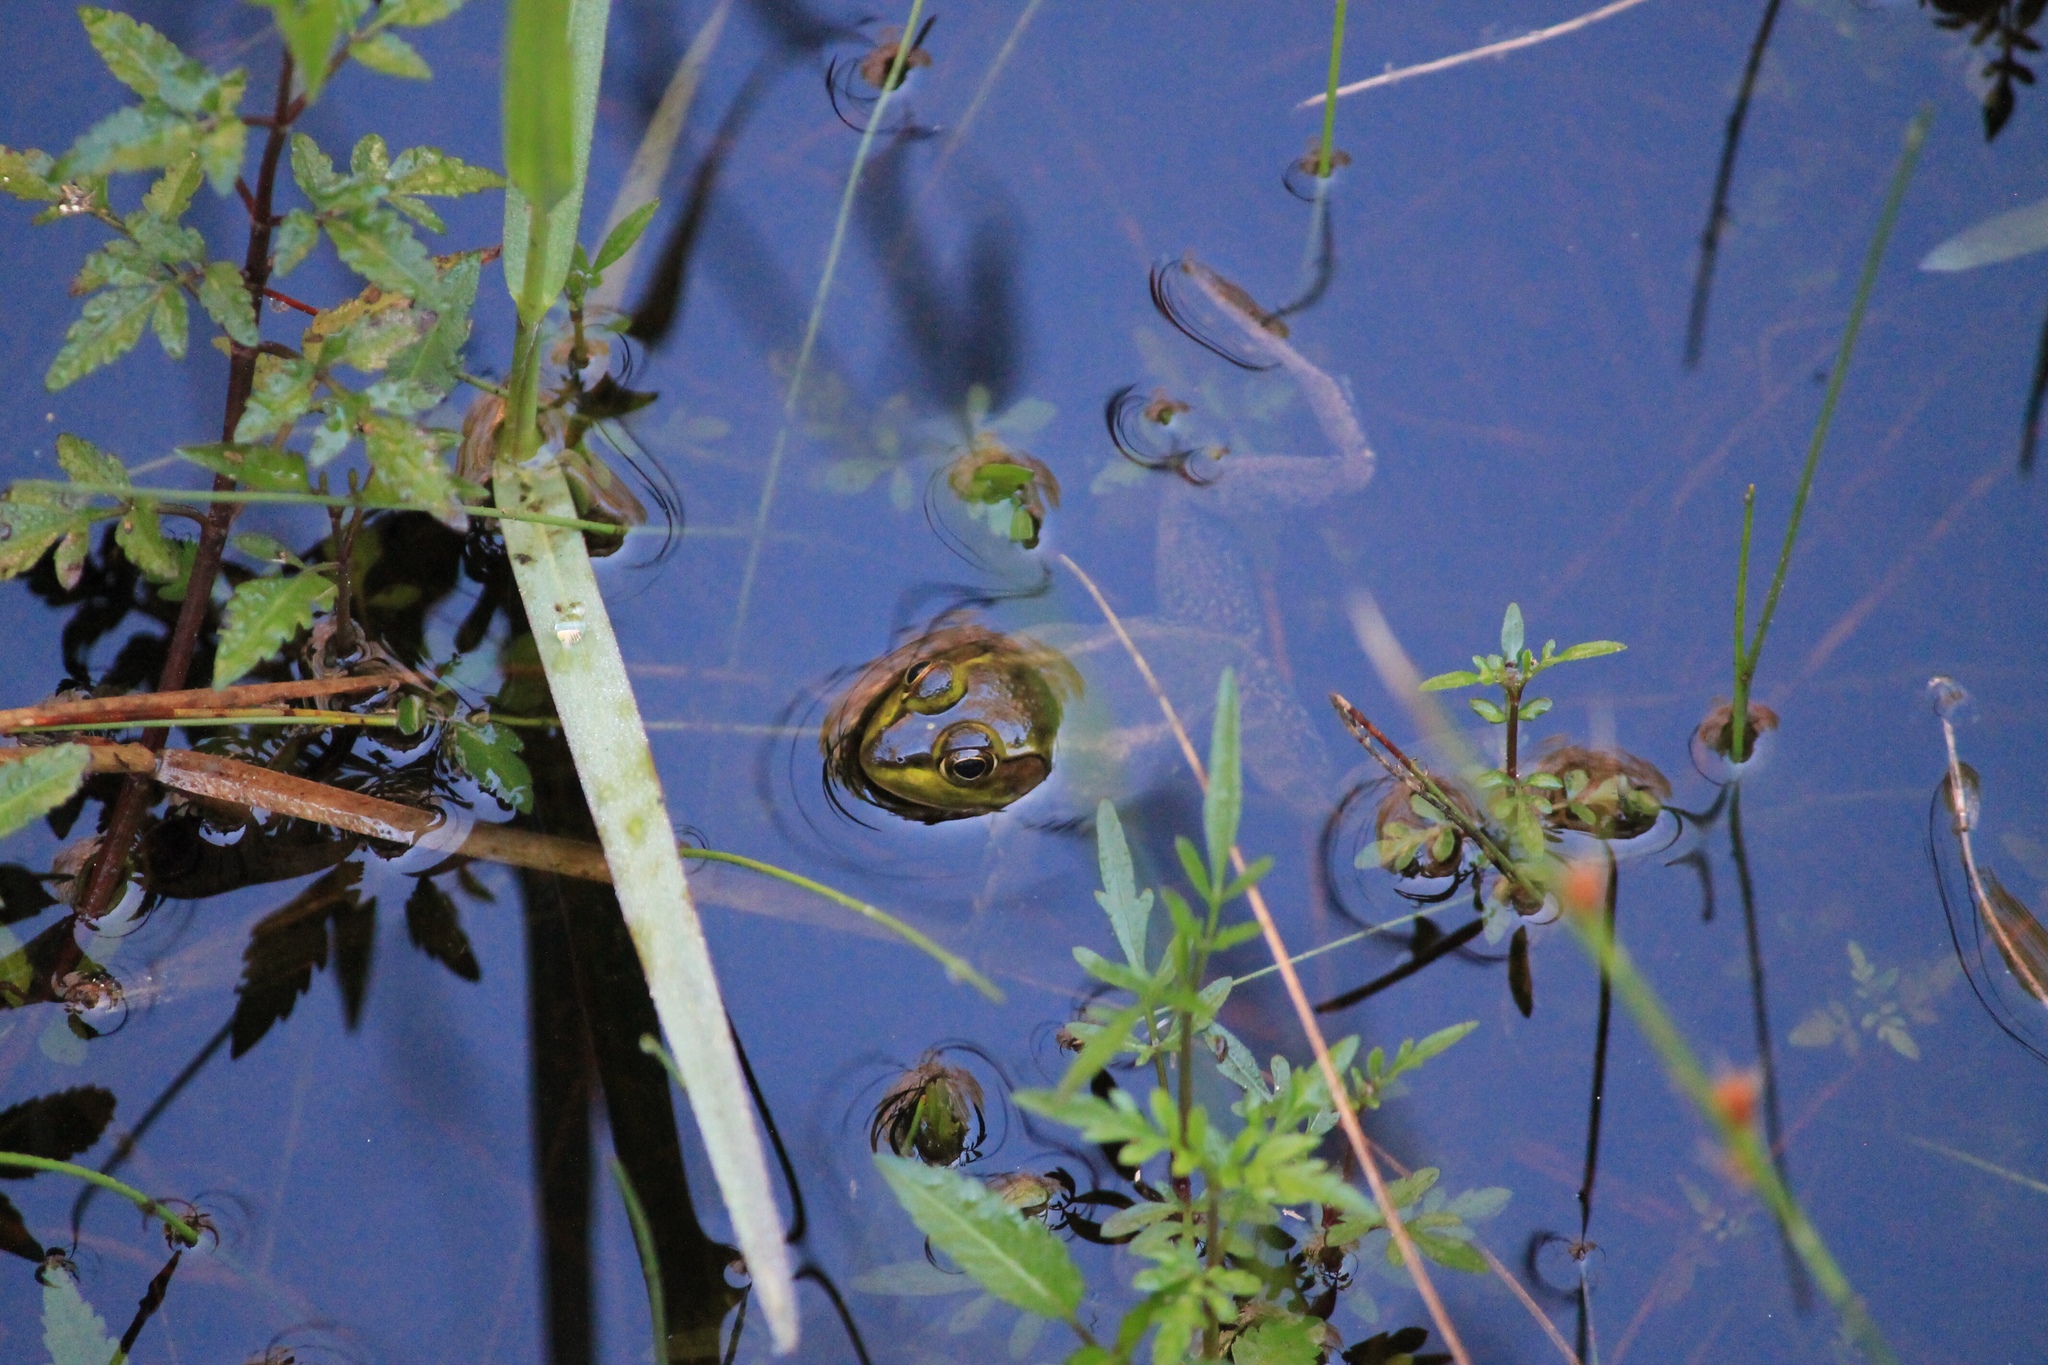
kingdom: Animalia
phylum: Chordata
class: Amphibia
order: Anura
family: Ranidae
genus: Lithobates
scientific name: Lithobates grylio
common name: Pig frog
